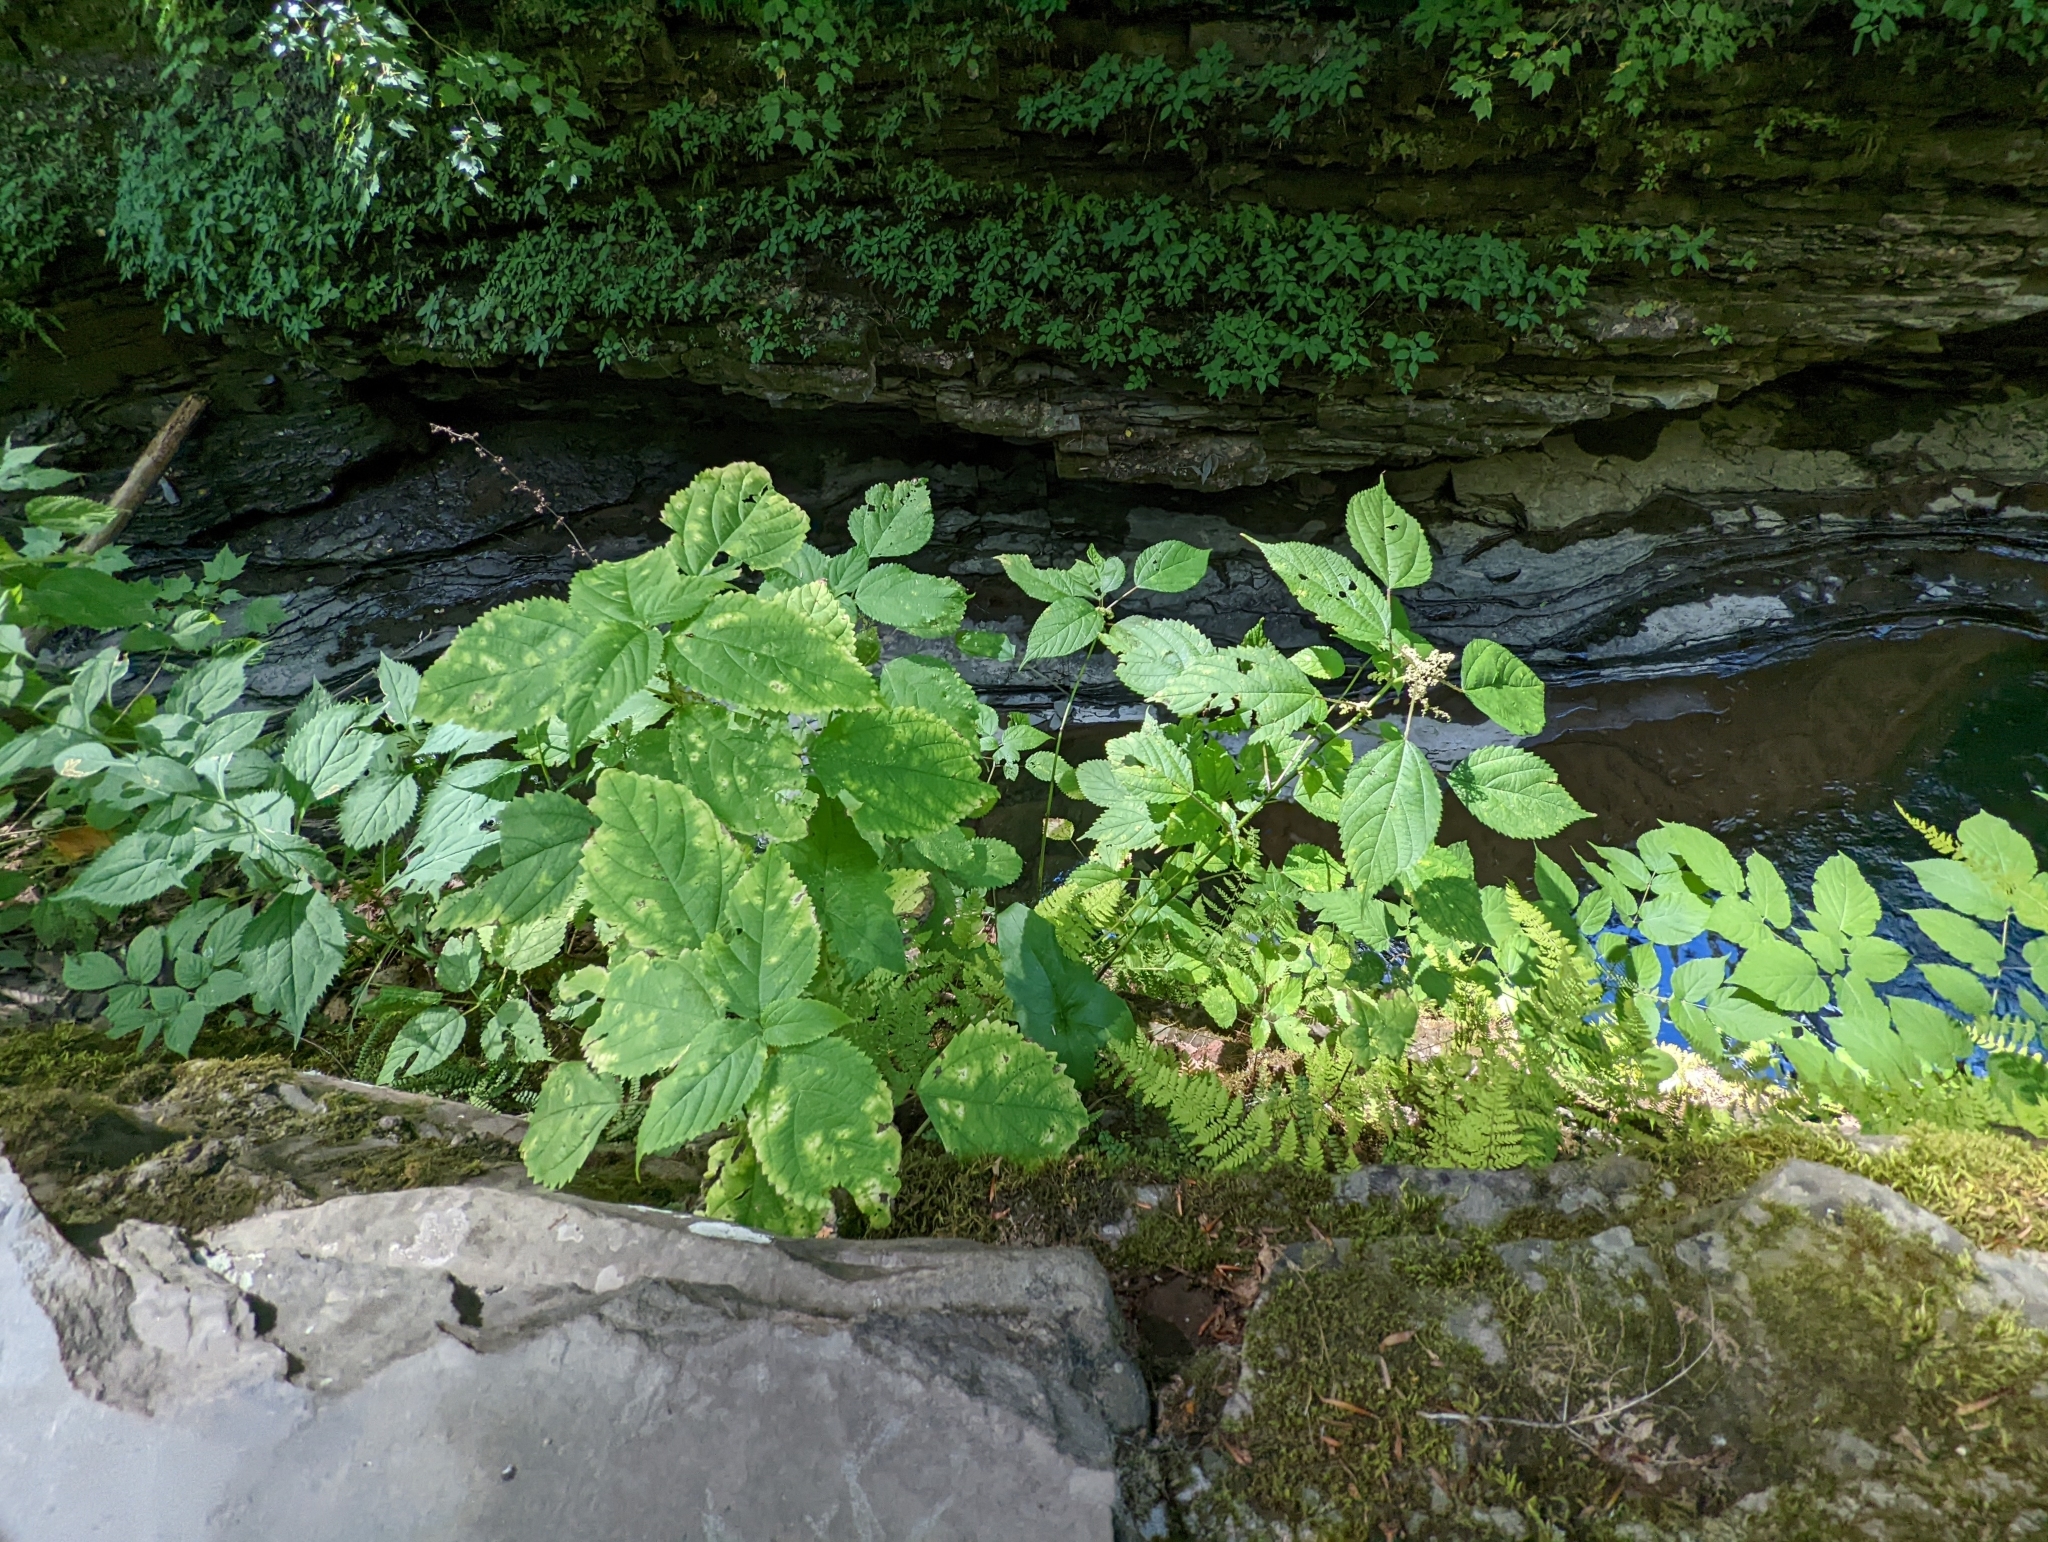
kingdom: Animalia
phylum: Arthropoda
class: Insecta
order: Diptera
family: Cecidomyiidae
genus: Dasineura
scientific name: Dasineura investita
